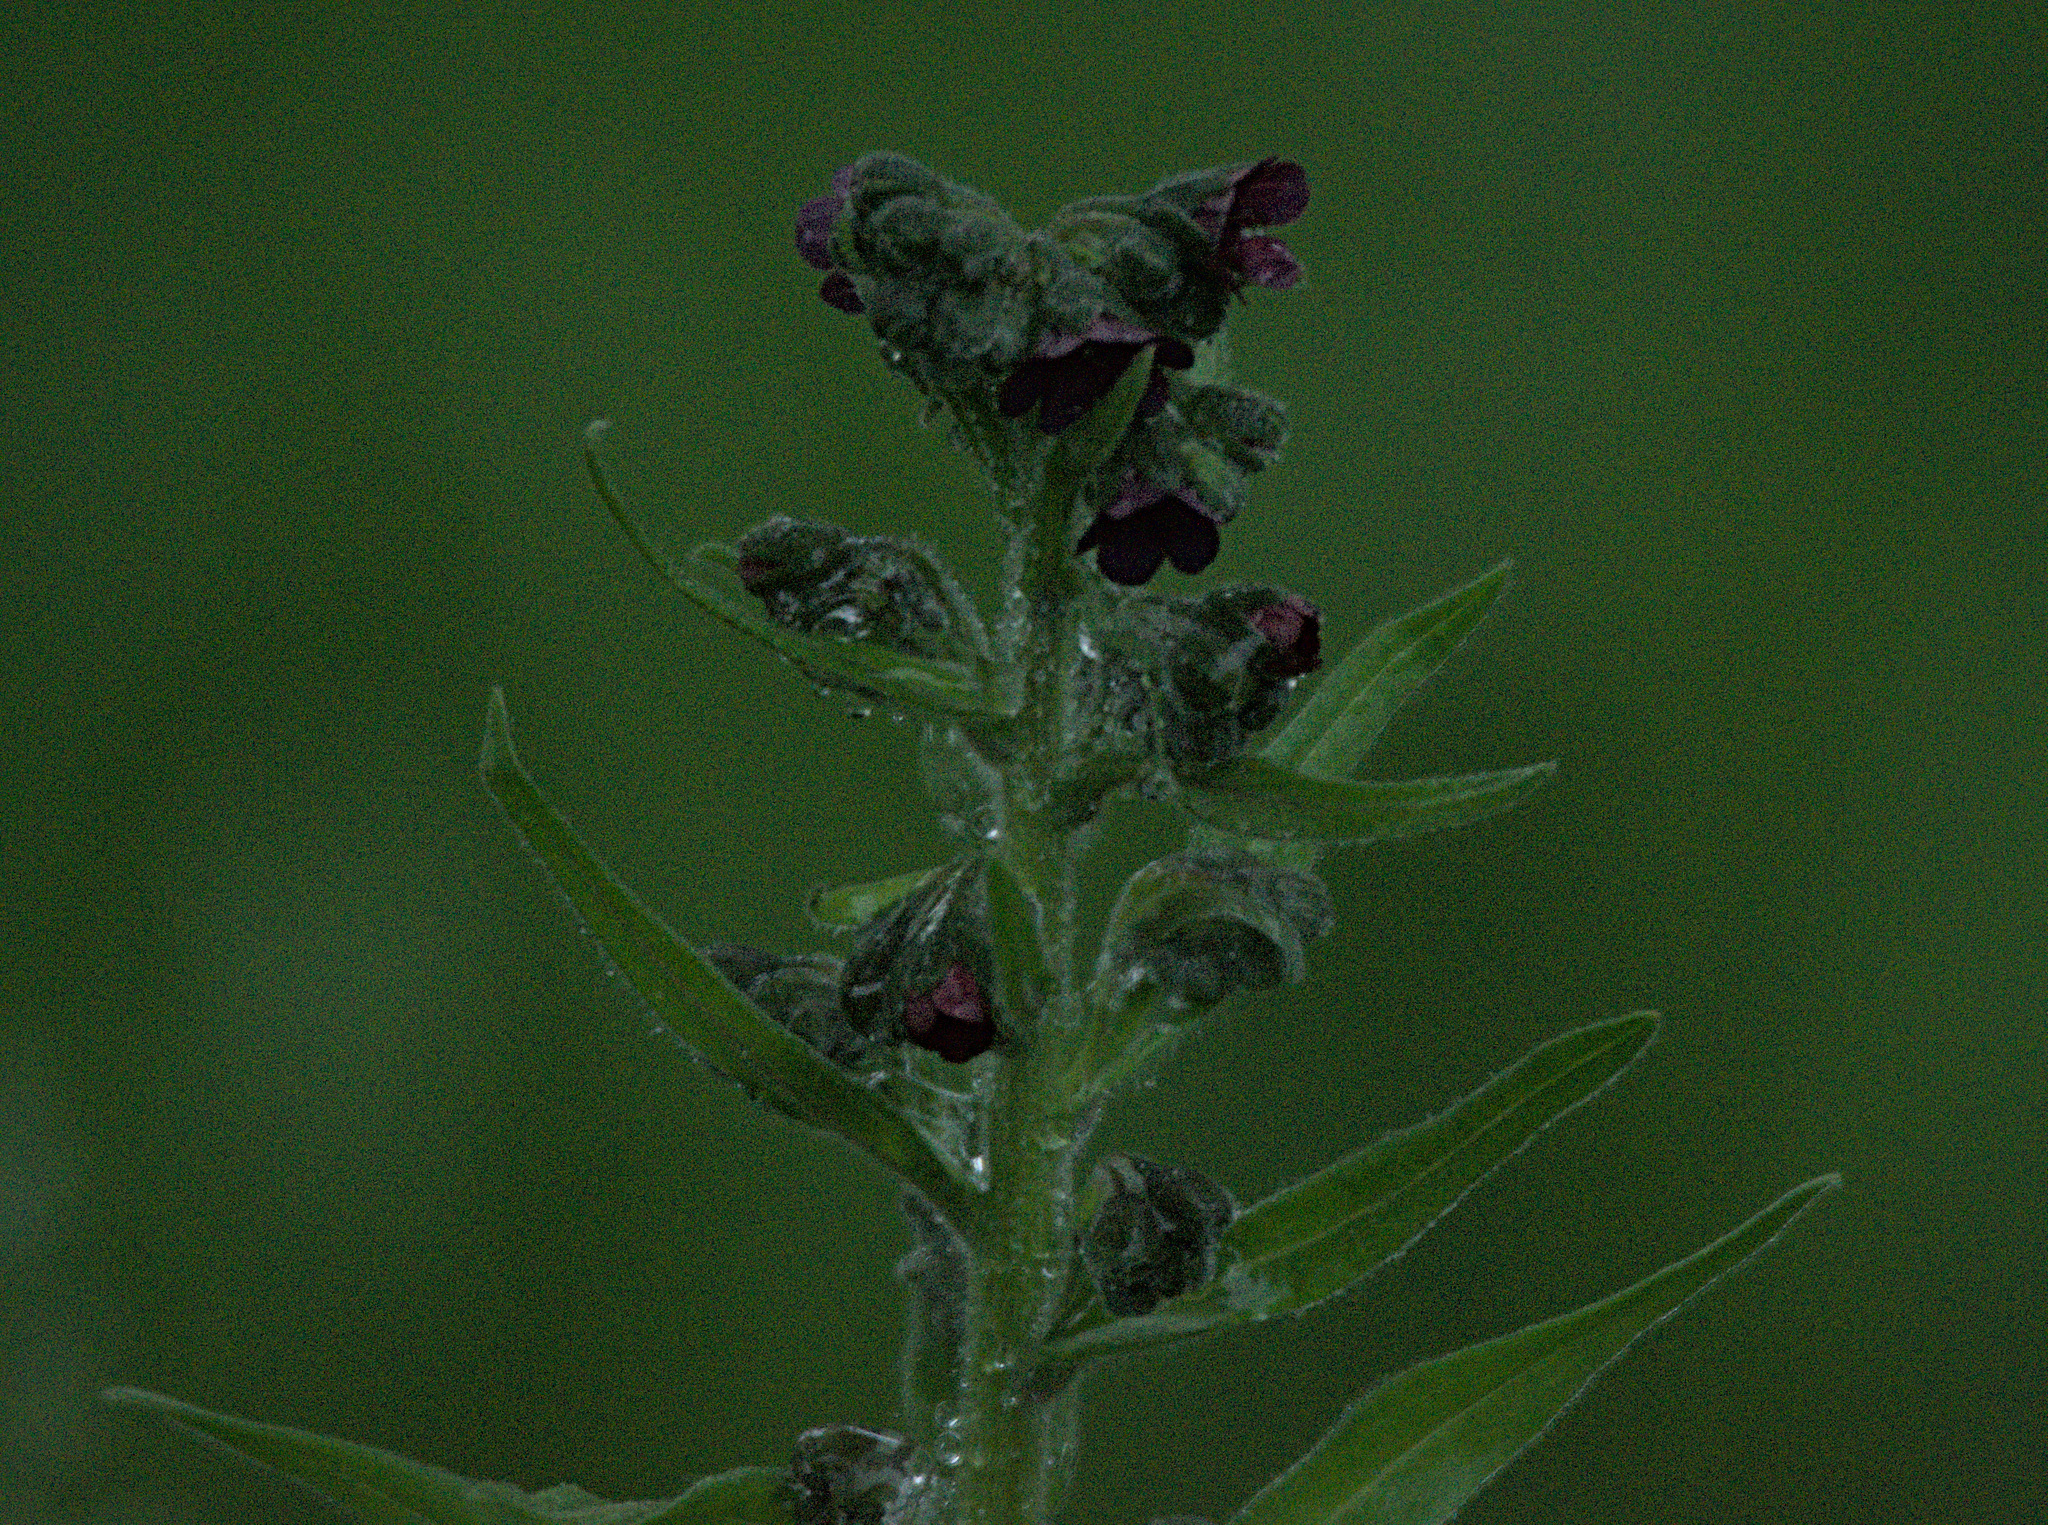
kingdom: Plantae
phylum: Tracheophyta
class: Magnoliopsida
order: Boraginales
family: Boraginaceae
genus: Cynoglossum
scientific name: Cynoglossum officinale
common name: Hound's-tongue
